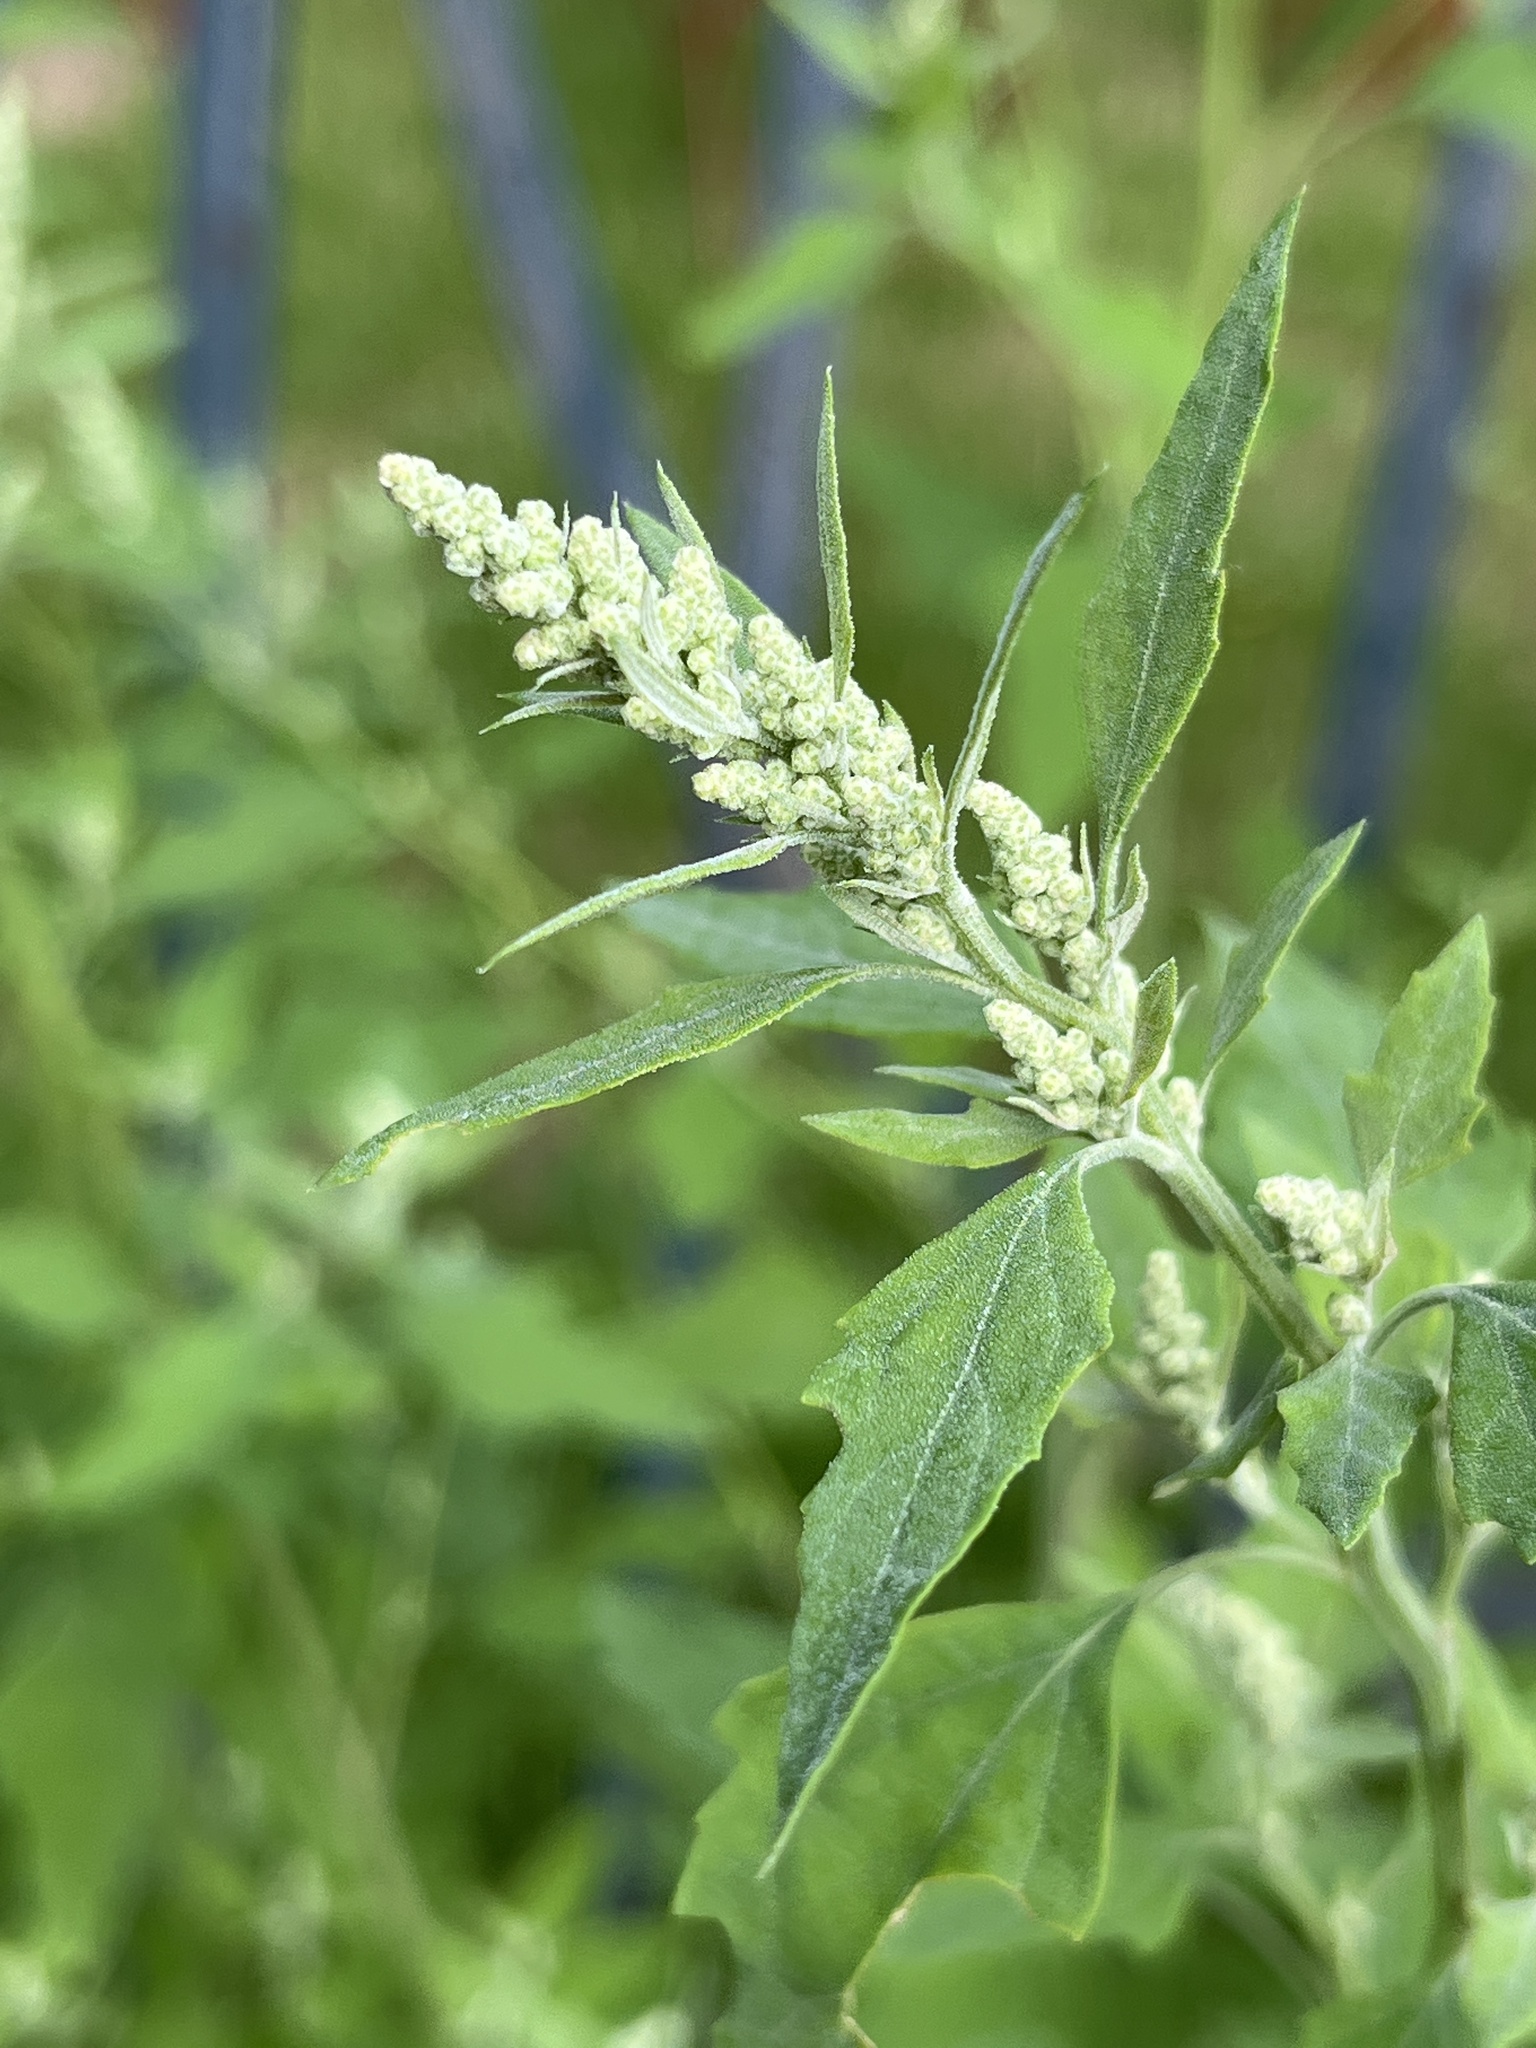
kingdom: Plantae
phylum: Tracheophyta
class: Magnoliopsida
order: Caryophyllales
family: Amaranthaceae
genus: Chenopodium
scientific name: Chenopodium album
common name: Fat-hen
